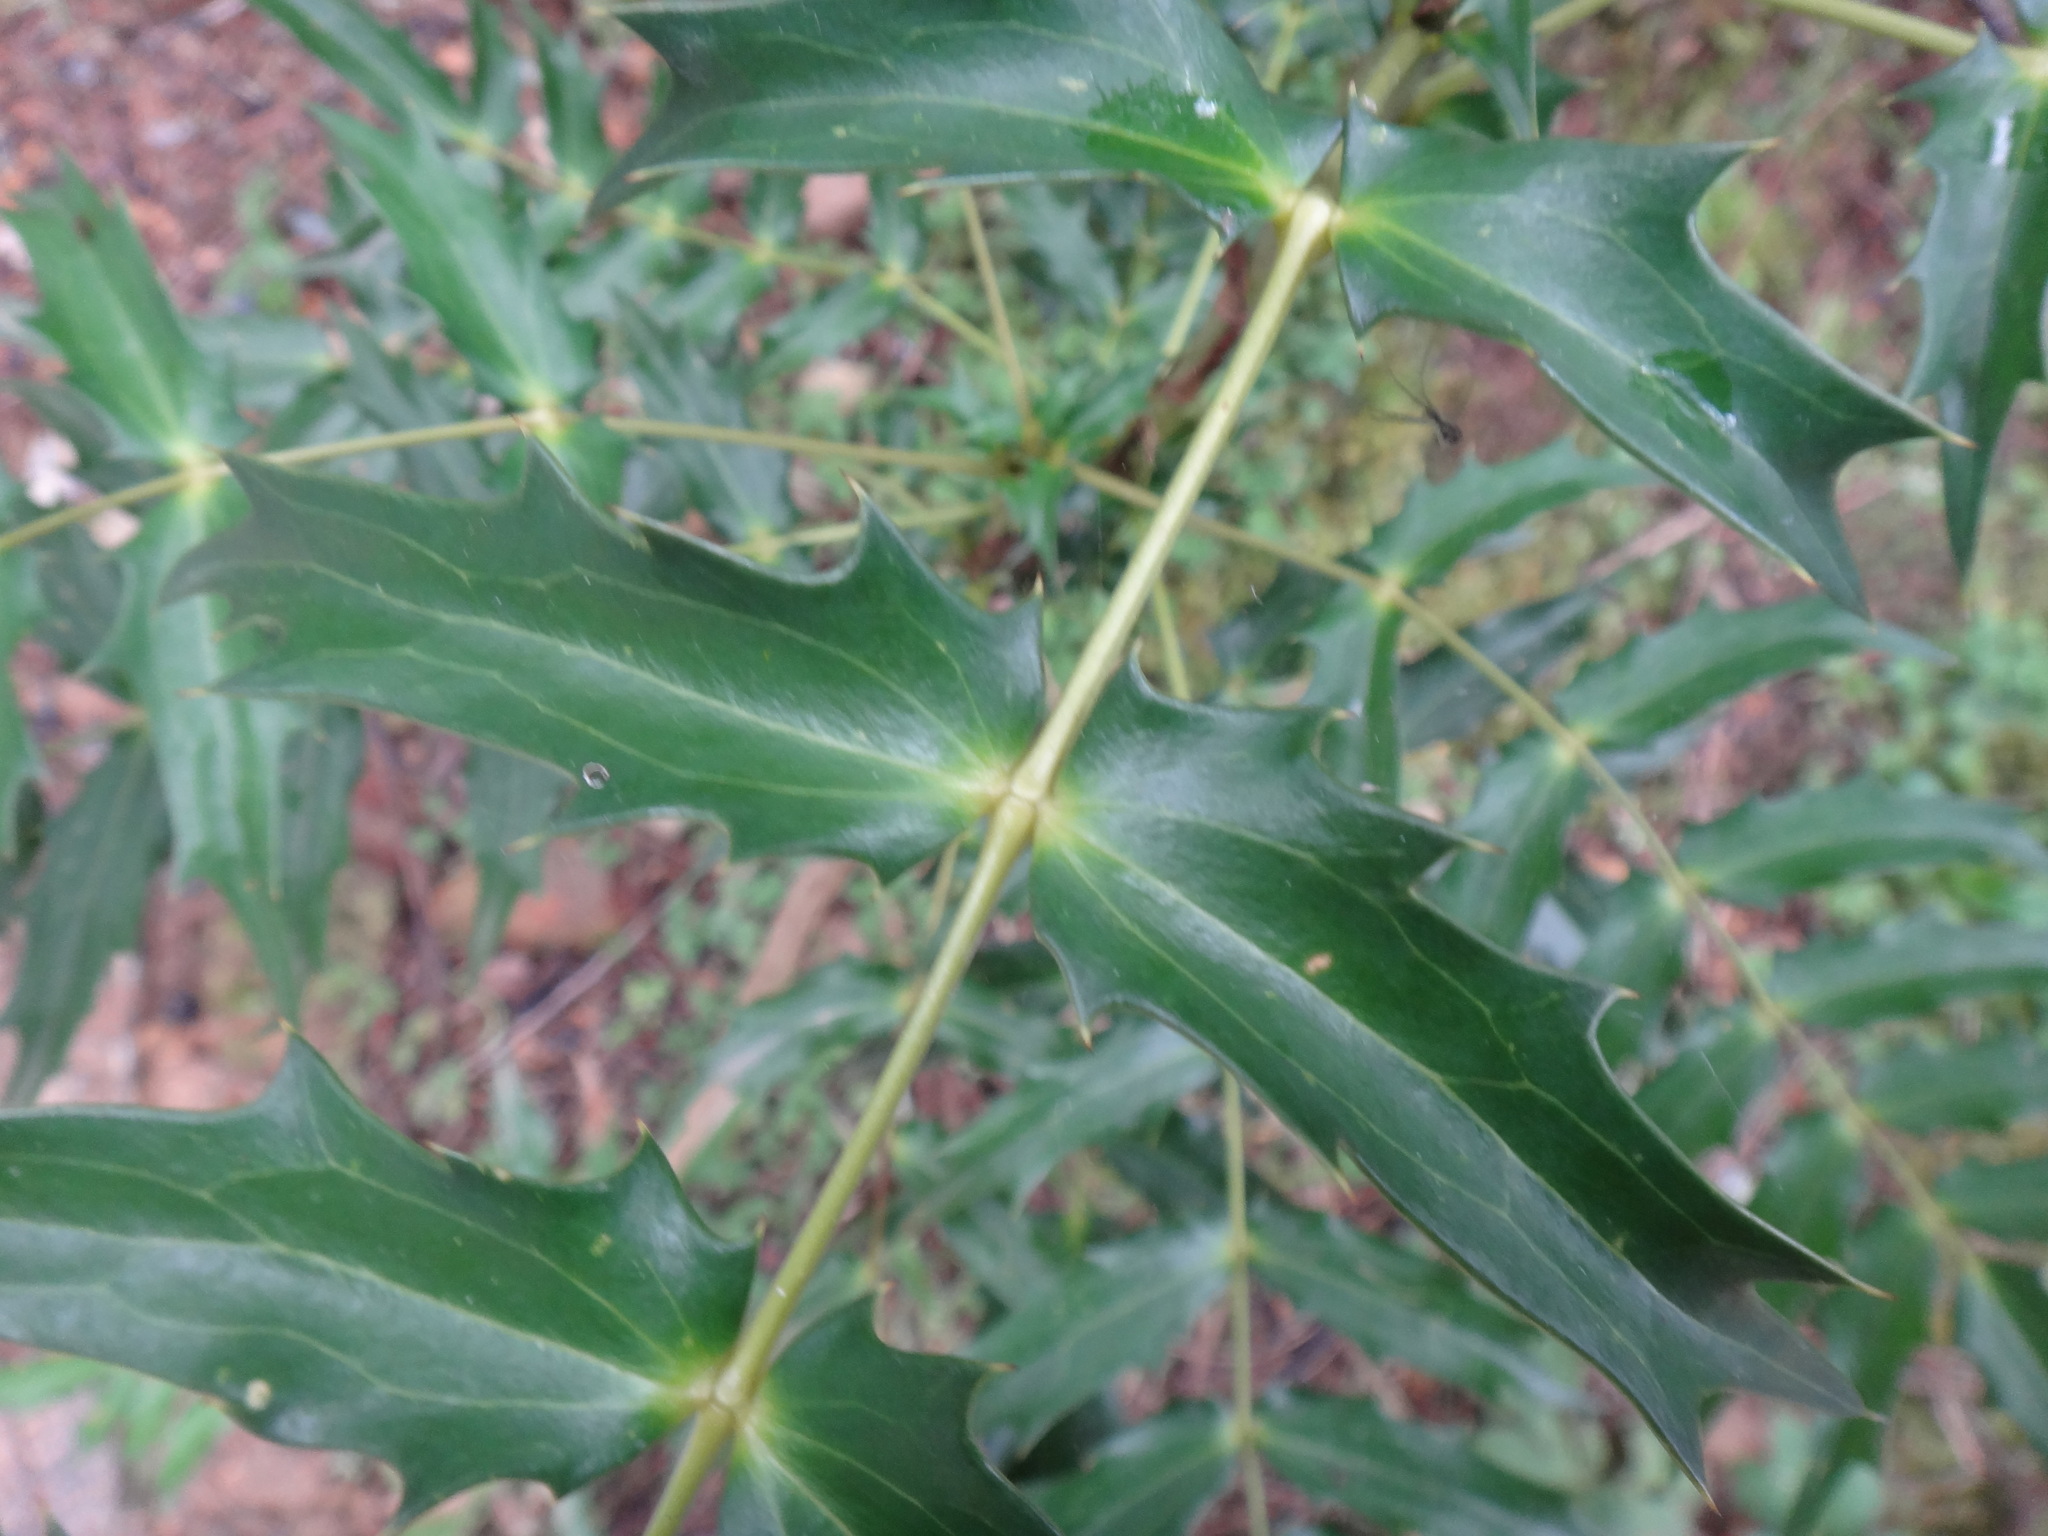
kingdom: Plantae
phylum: Tracheophyta
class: Magnoliopsida
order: Ranunculales
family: Berberidaceae
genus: Mahonia
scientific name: Mahonia oiwakensis
